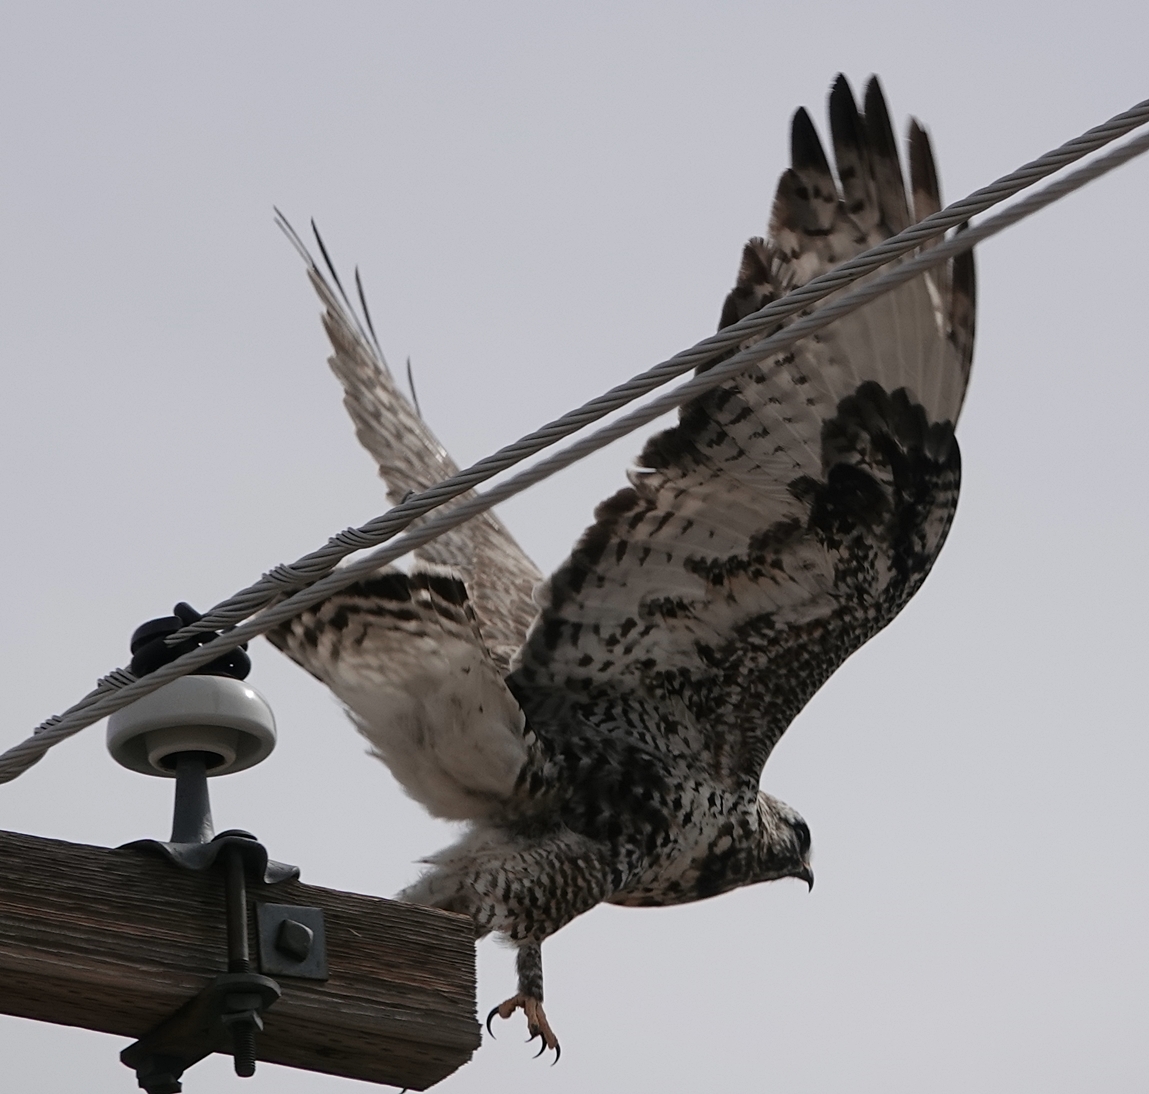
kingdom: Animalia
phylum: Chordata
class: Aves
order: Accipitriformes
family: Accipitridae
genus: Buteo
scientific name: Buteo lagopus
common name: Rough-legged buzzard
